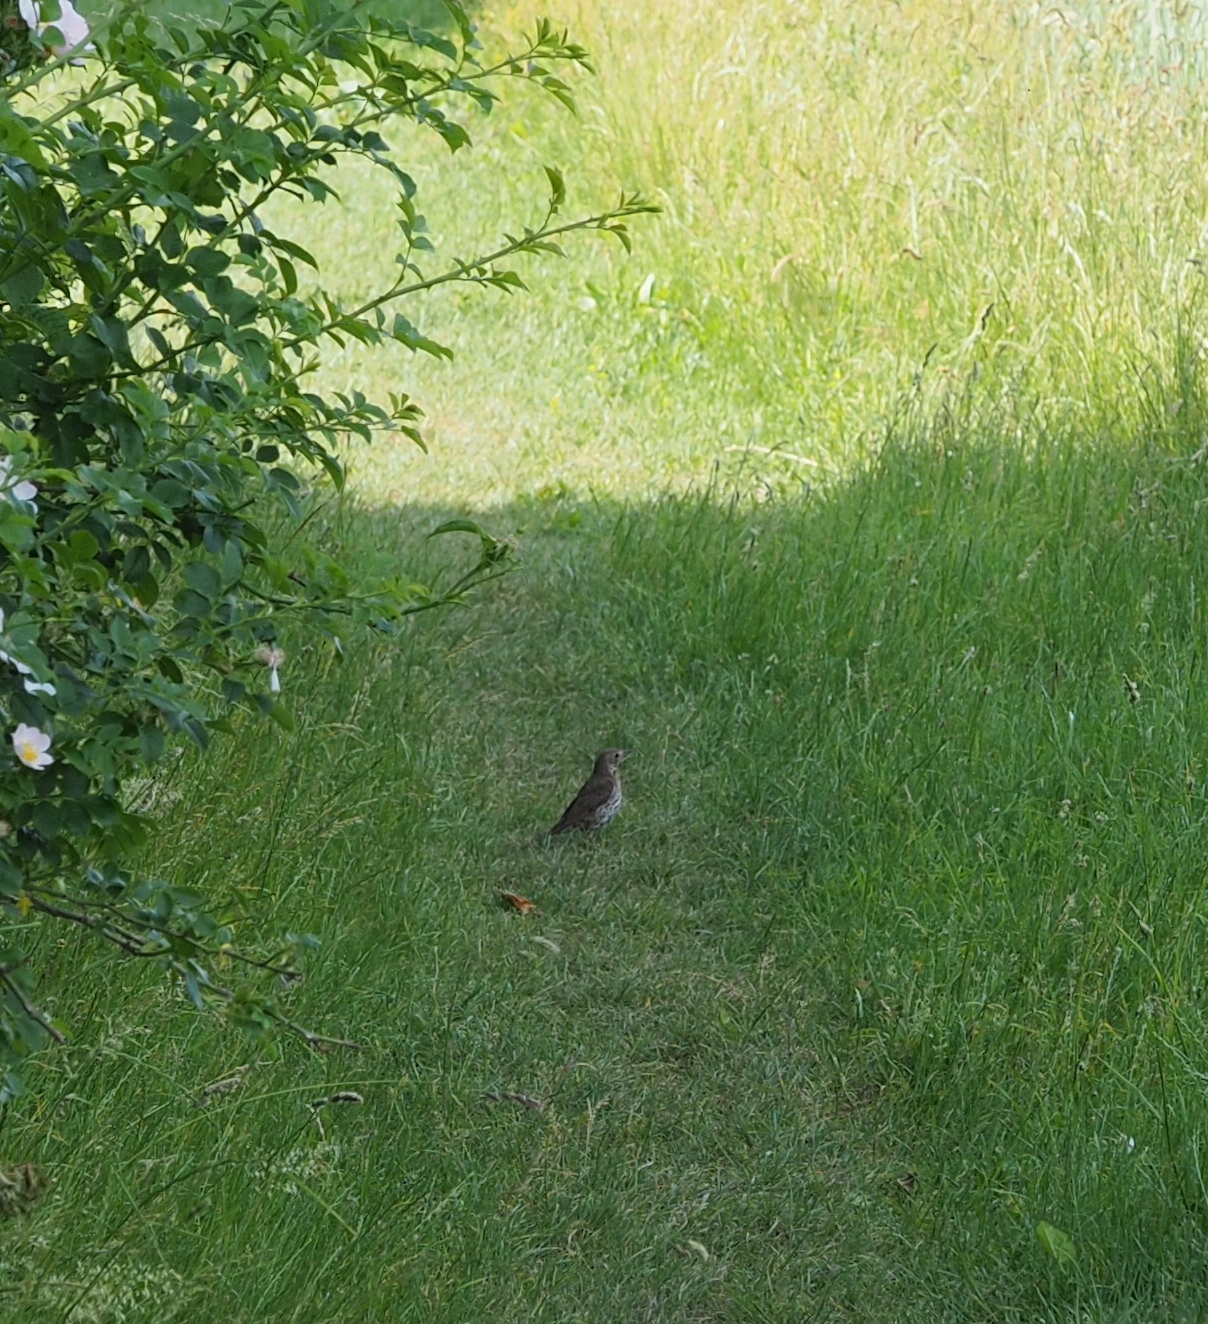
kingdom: Animalia
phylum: Chordata
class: Aves
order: Passeriformes
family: Turdidae
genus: Turdus
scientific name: Turdus philomelos
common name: Song thrush
